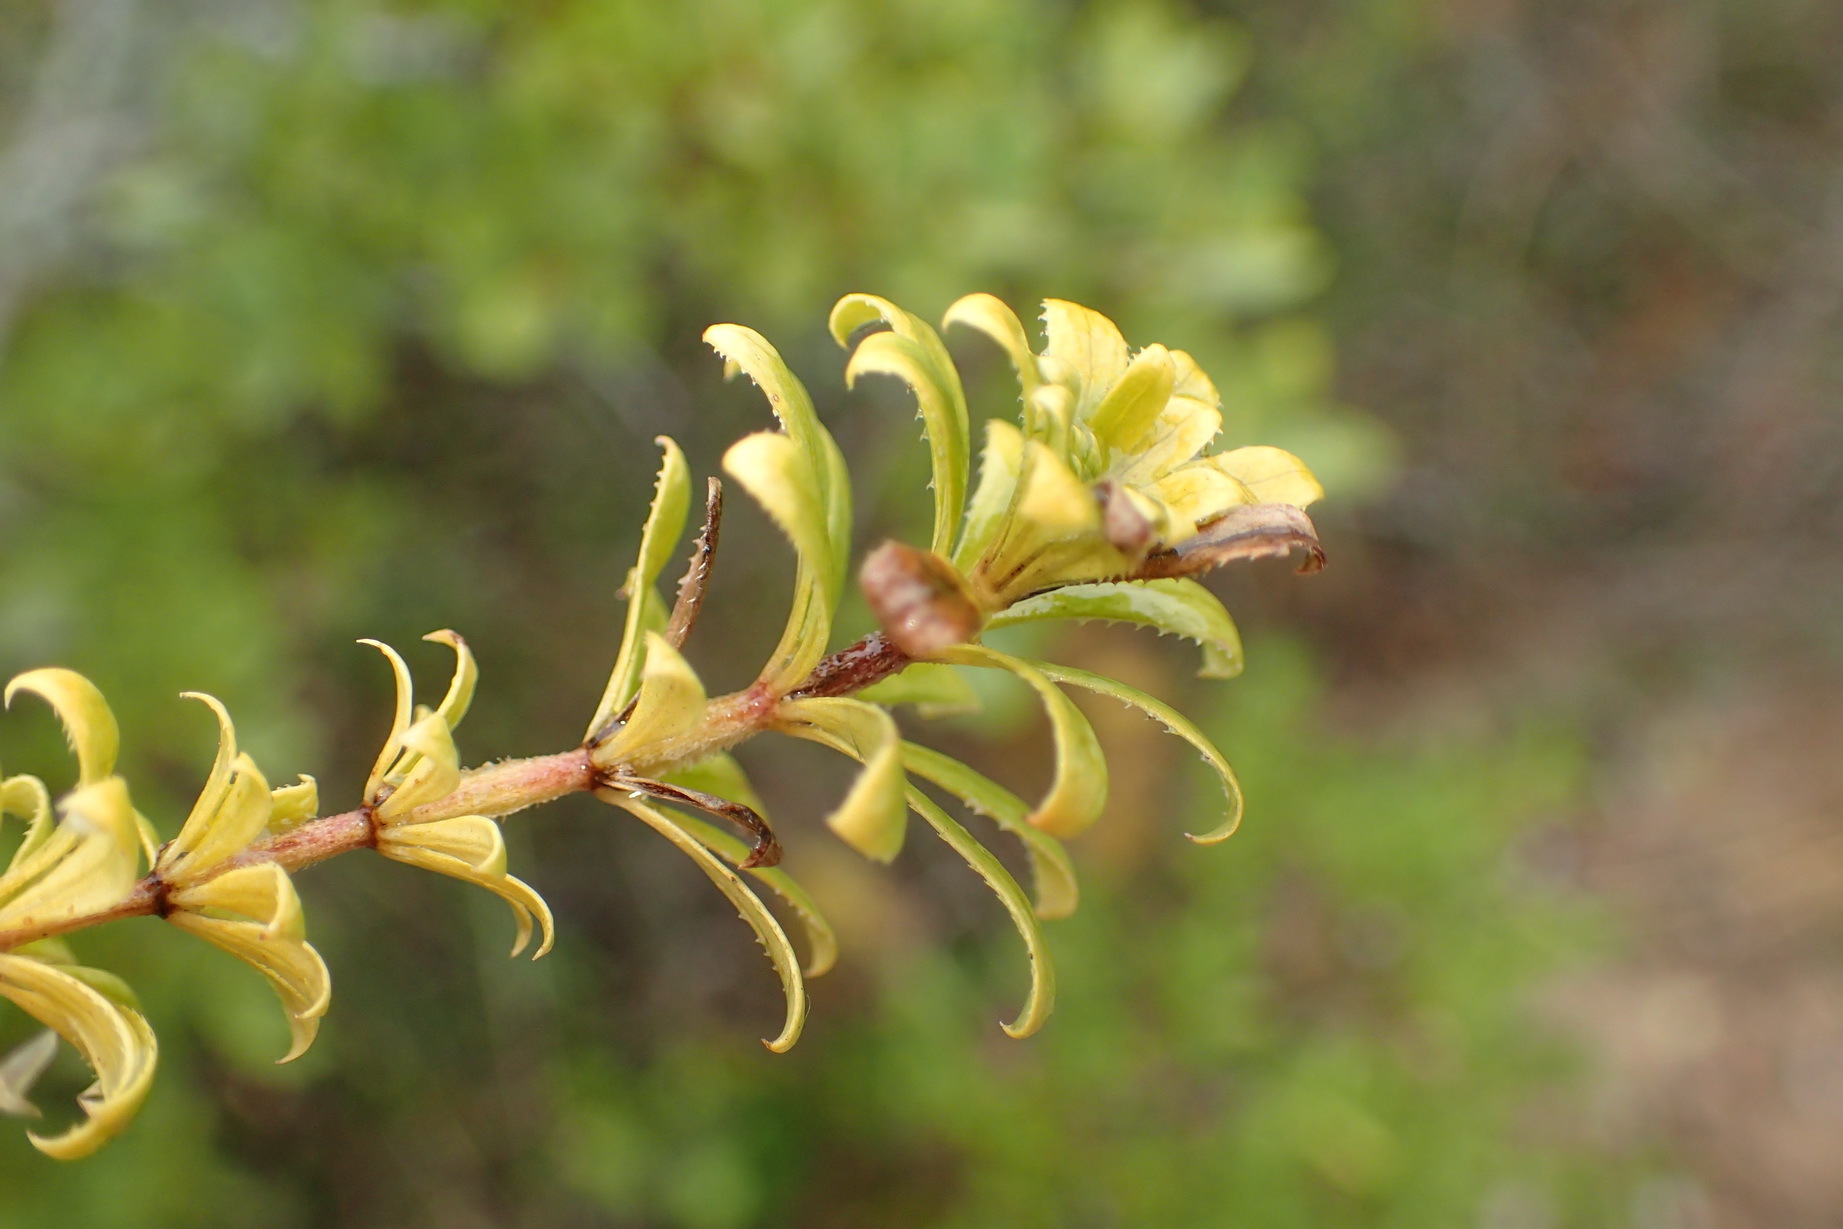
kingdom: Plantae
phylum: Tracheophyta
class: Magnoliopsida
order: Gentianales
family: Rubiaceae
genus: Galium
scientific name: Galium tomentosum
